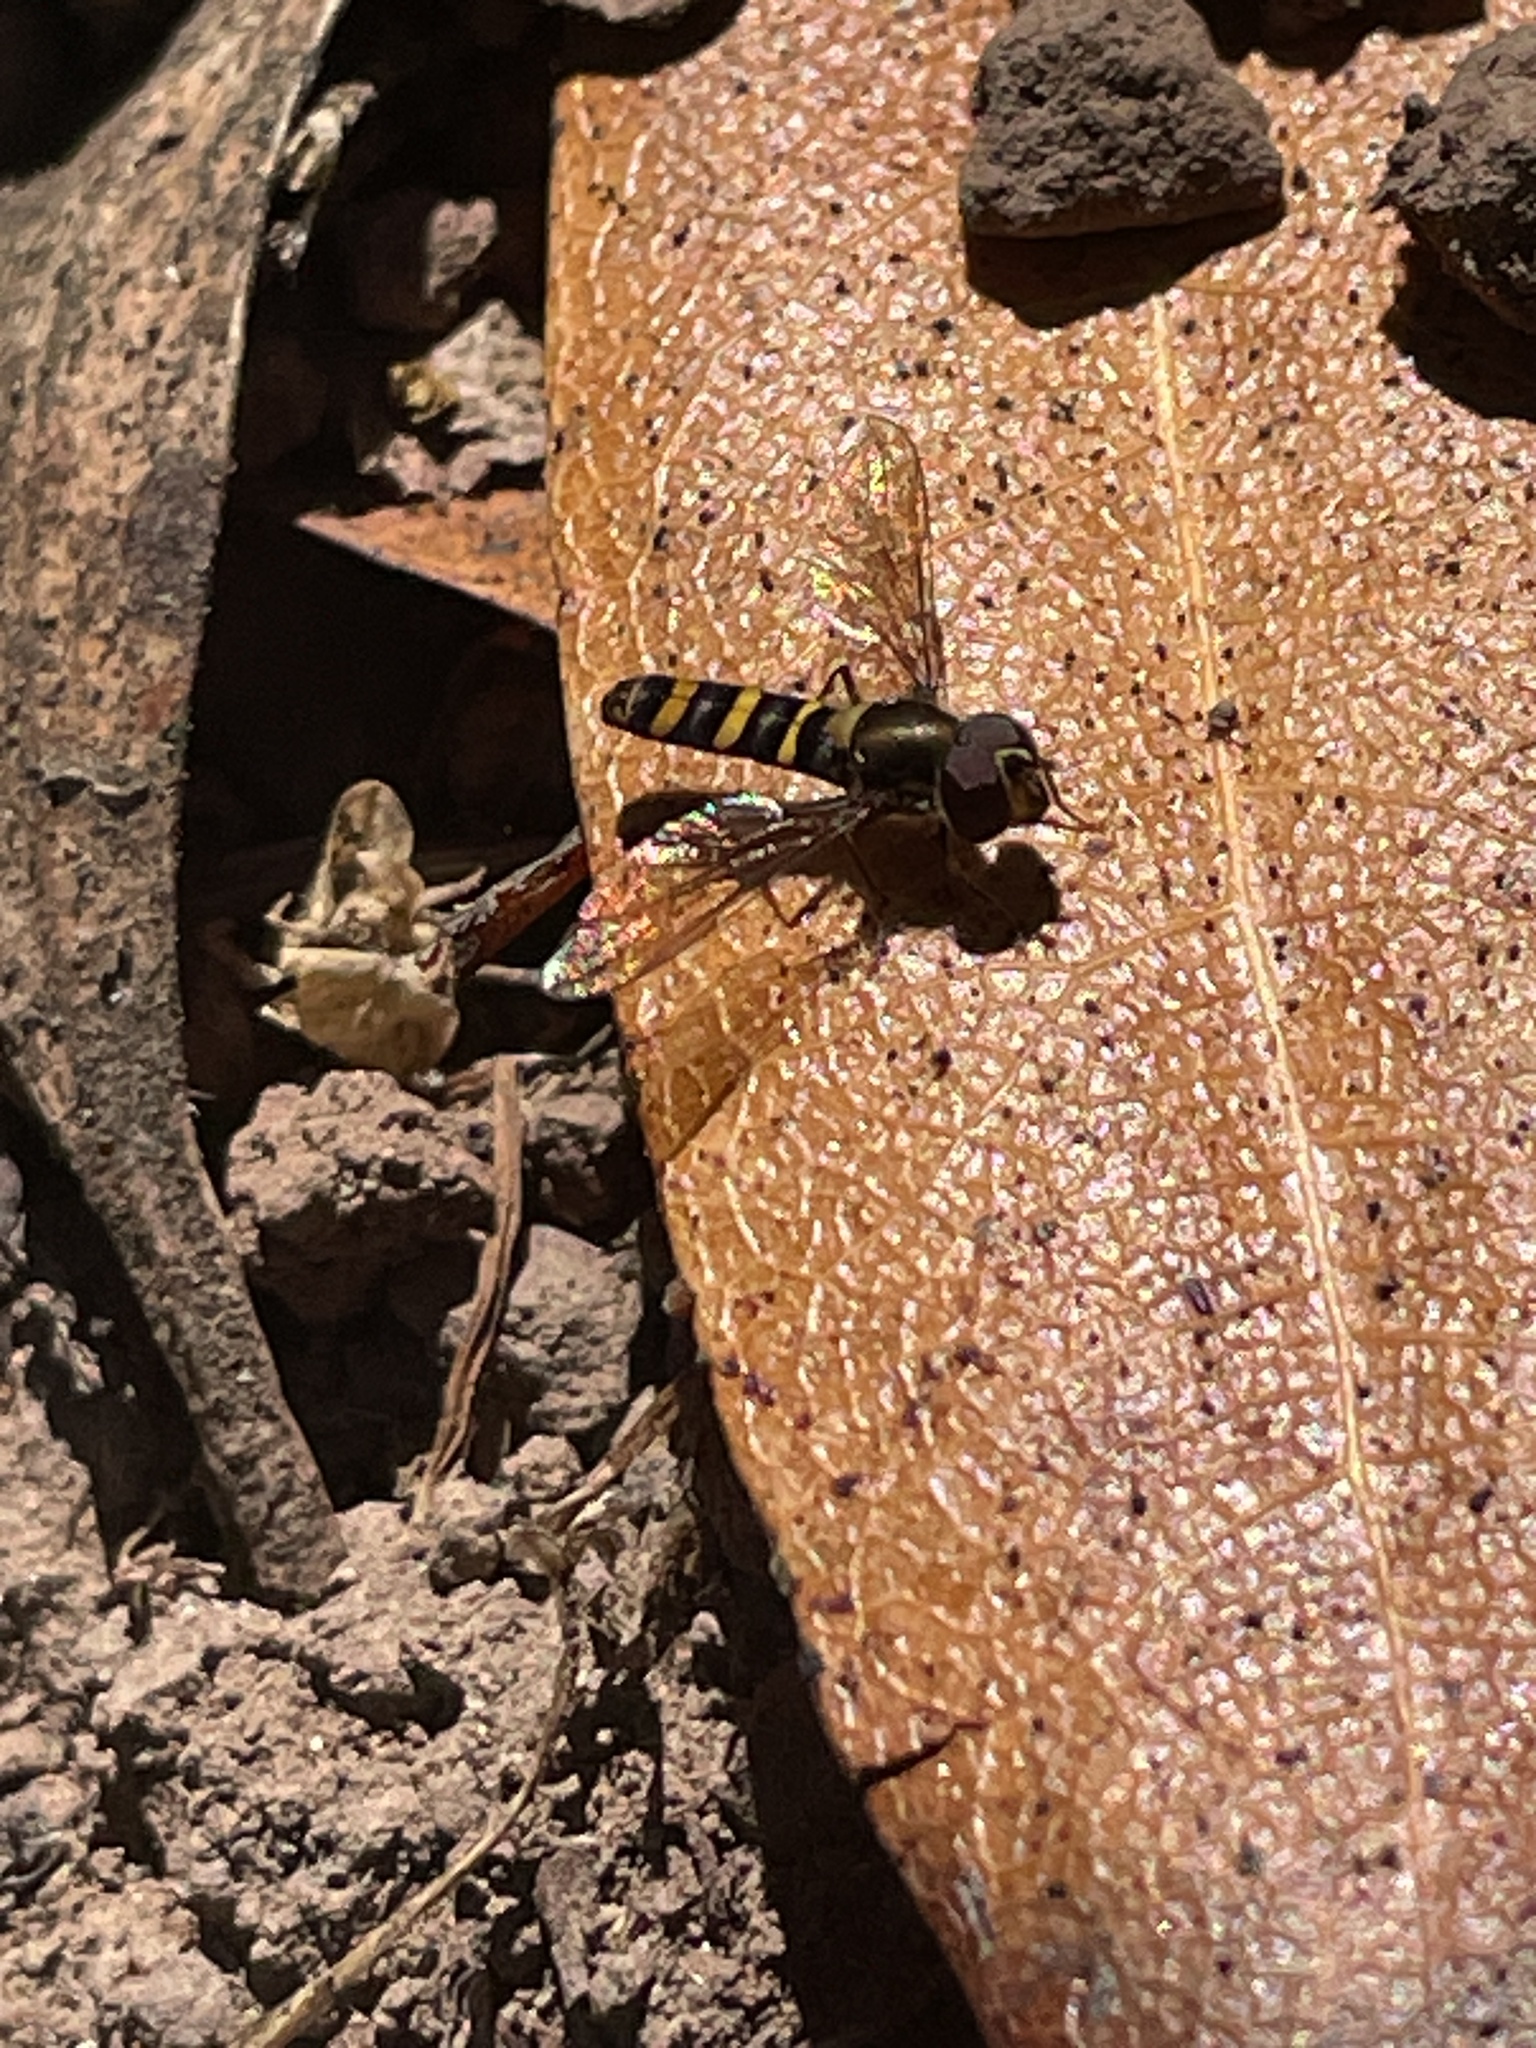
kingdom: Animalia
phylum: Arthropoda
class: Insecta
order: Diptera
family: Syrphidae
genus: Fazia
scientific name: Fazia micrura
